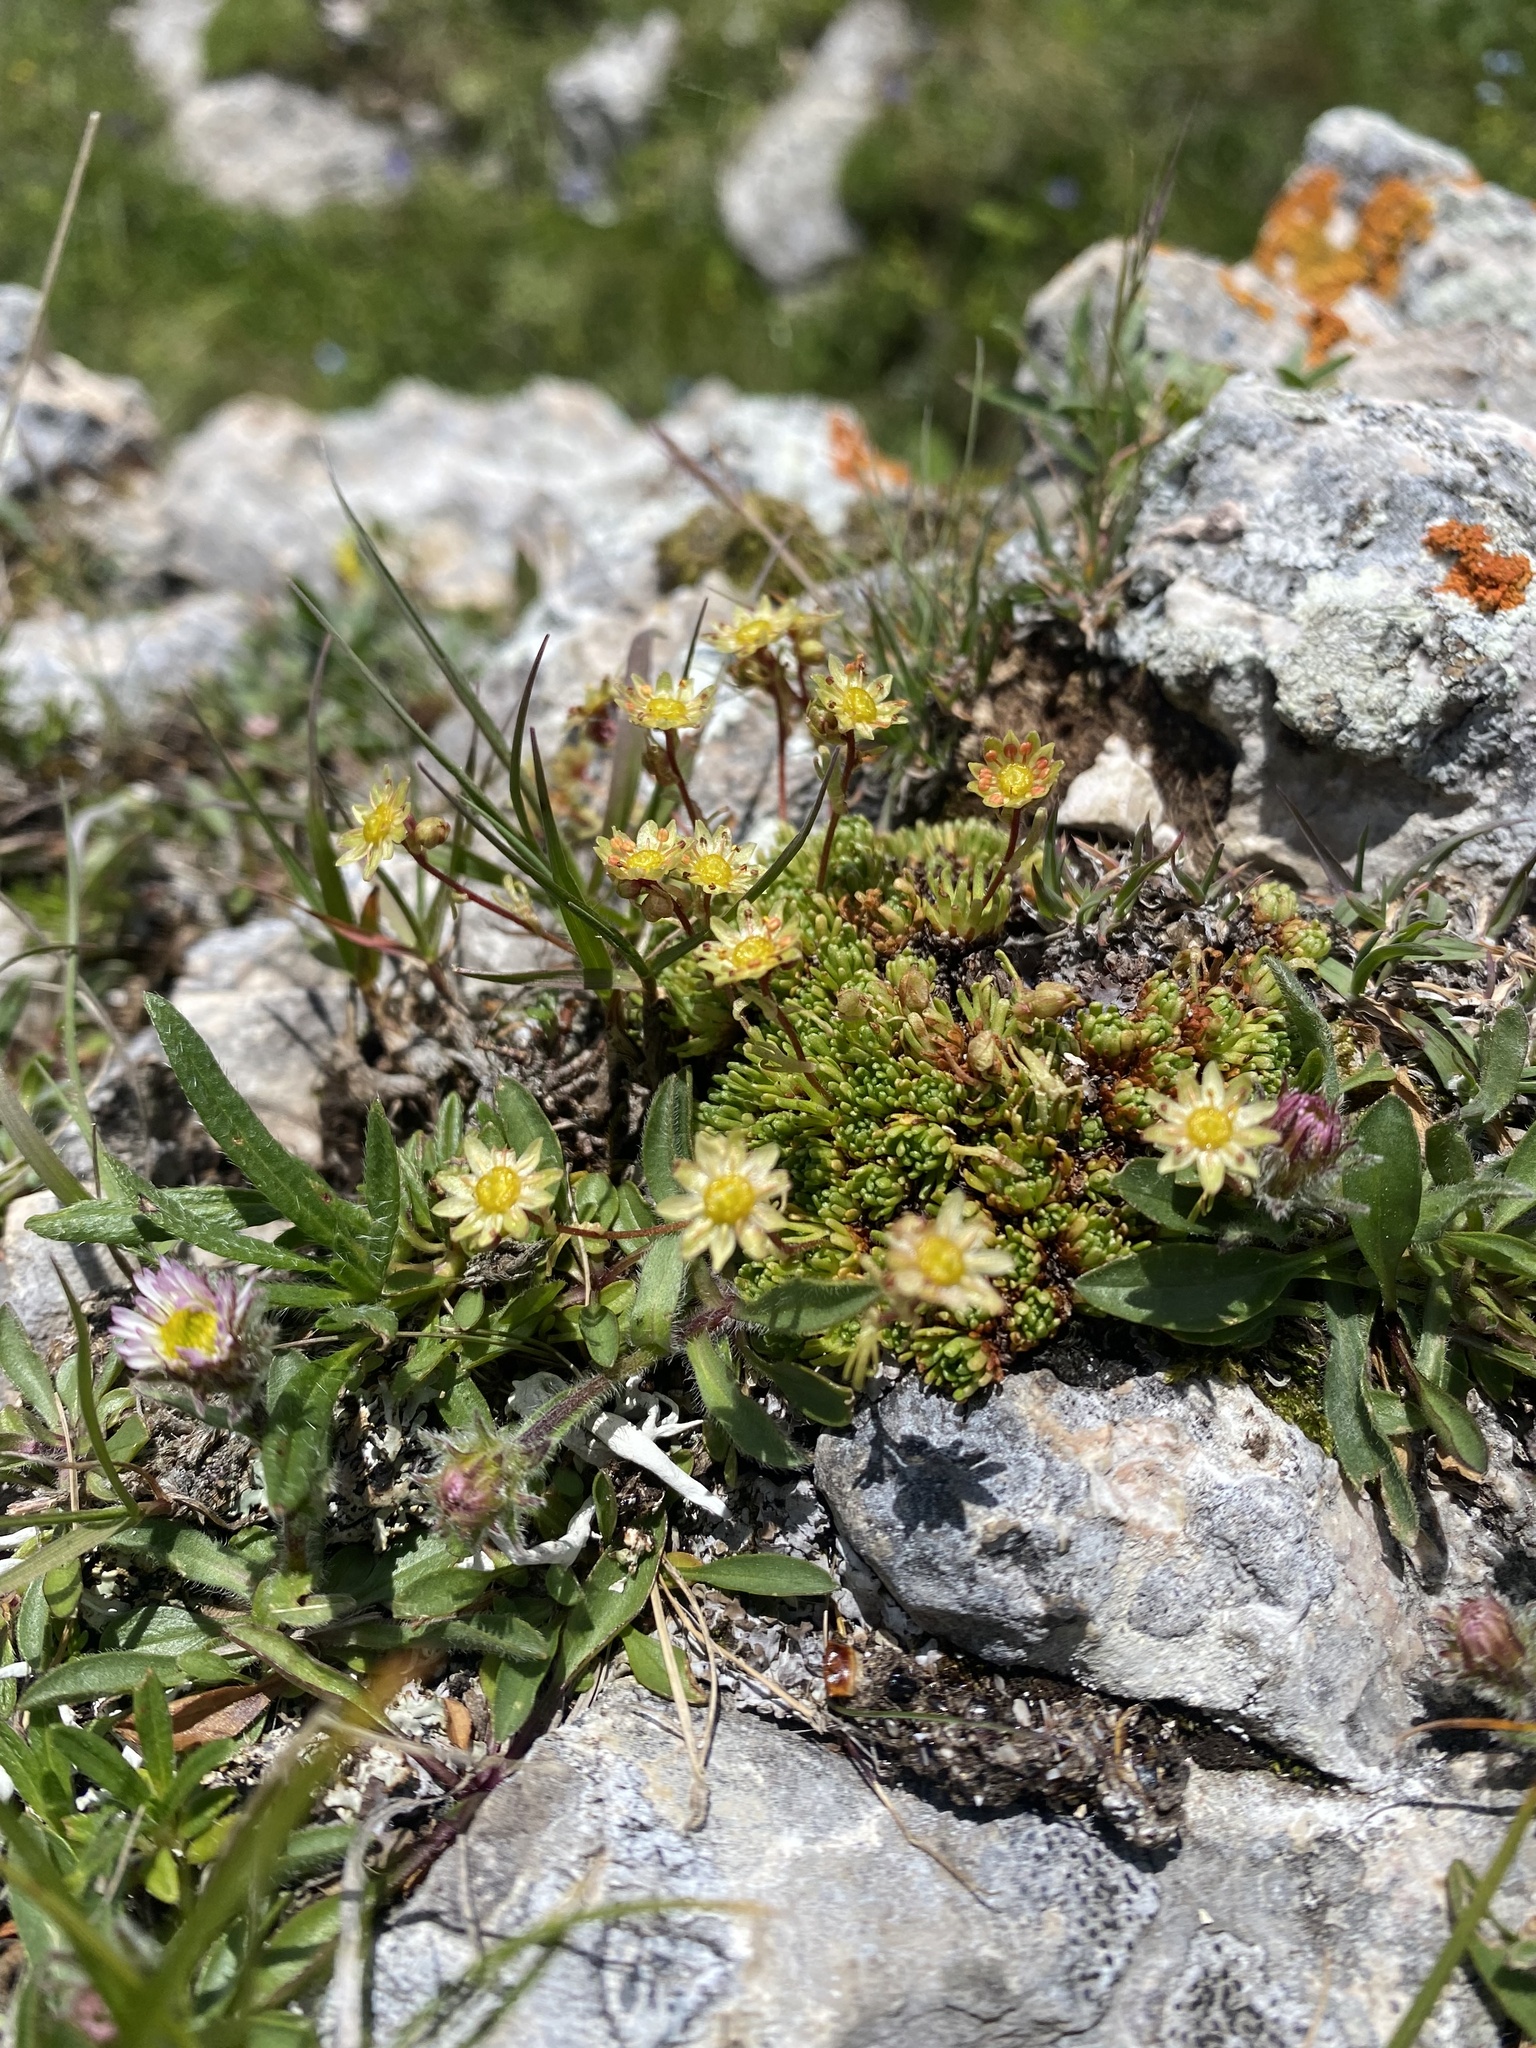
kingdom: Plantae
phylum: Tracheophyta
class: Magnoliopsida
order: Saxifragales
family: Saxifragaceae
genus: Saxifraga
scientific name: Saxifraga moschata
